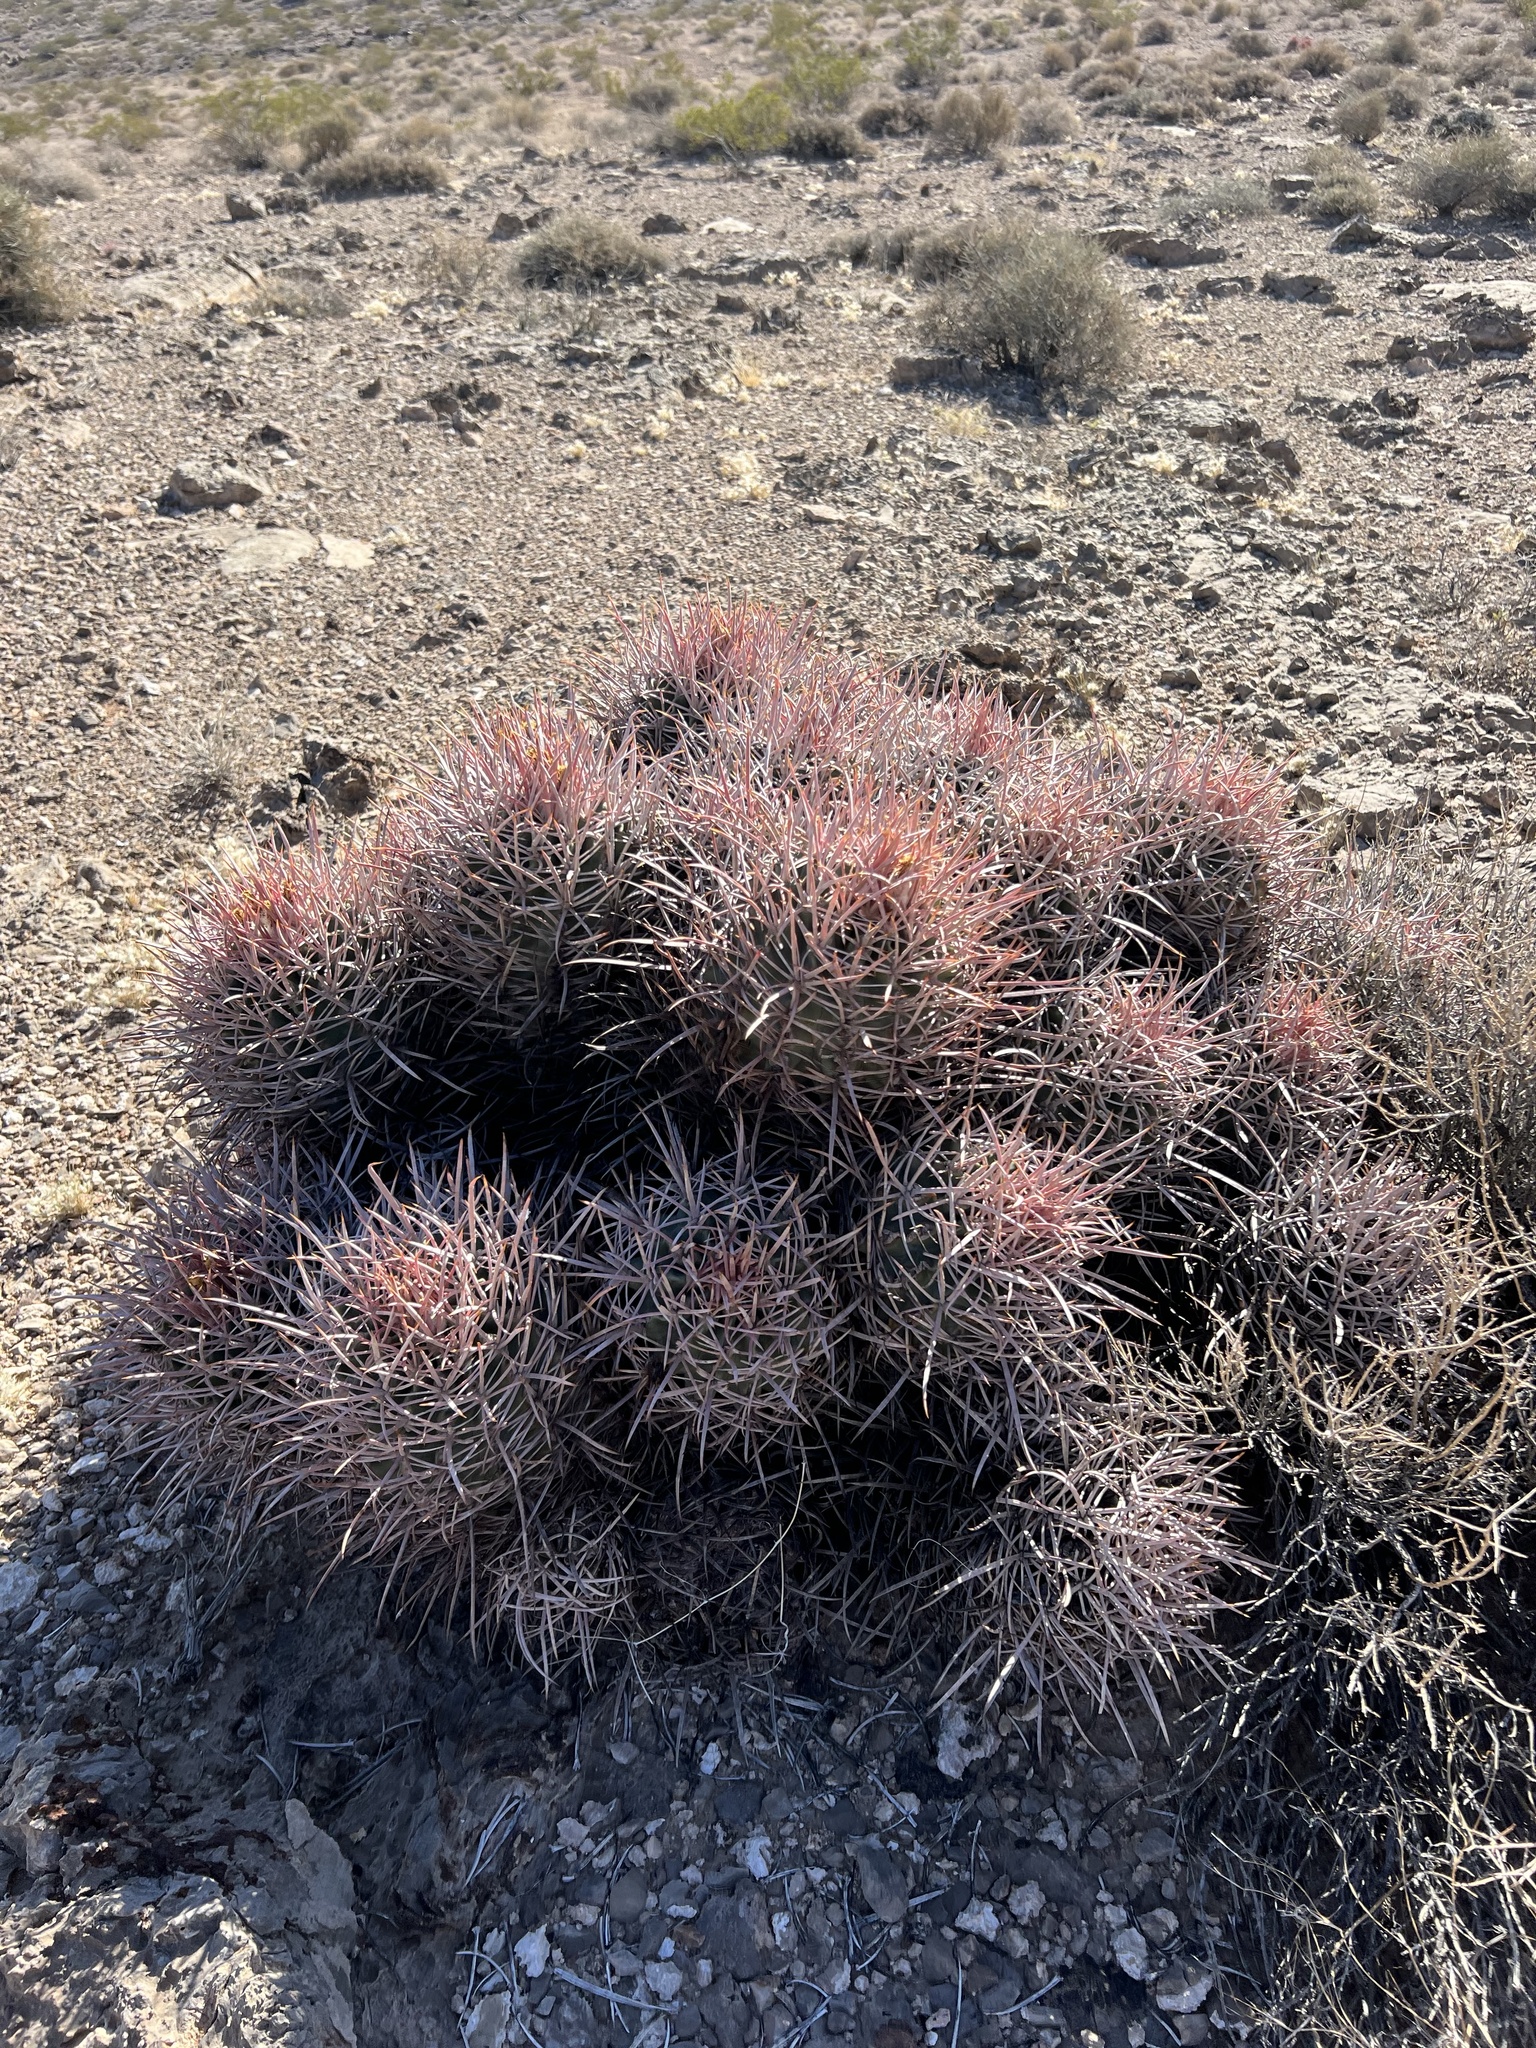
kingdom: Plantae
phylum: Tracheophyta
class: Magnoliopsida
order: Caryophyllales
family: Cactaceae
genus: Echinocactus
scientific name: Echinocactus polycephalus
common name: Cottontop cactus
